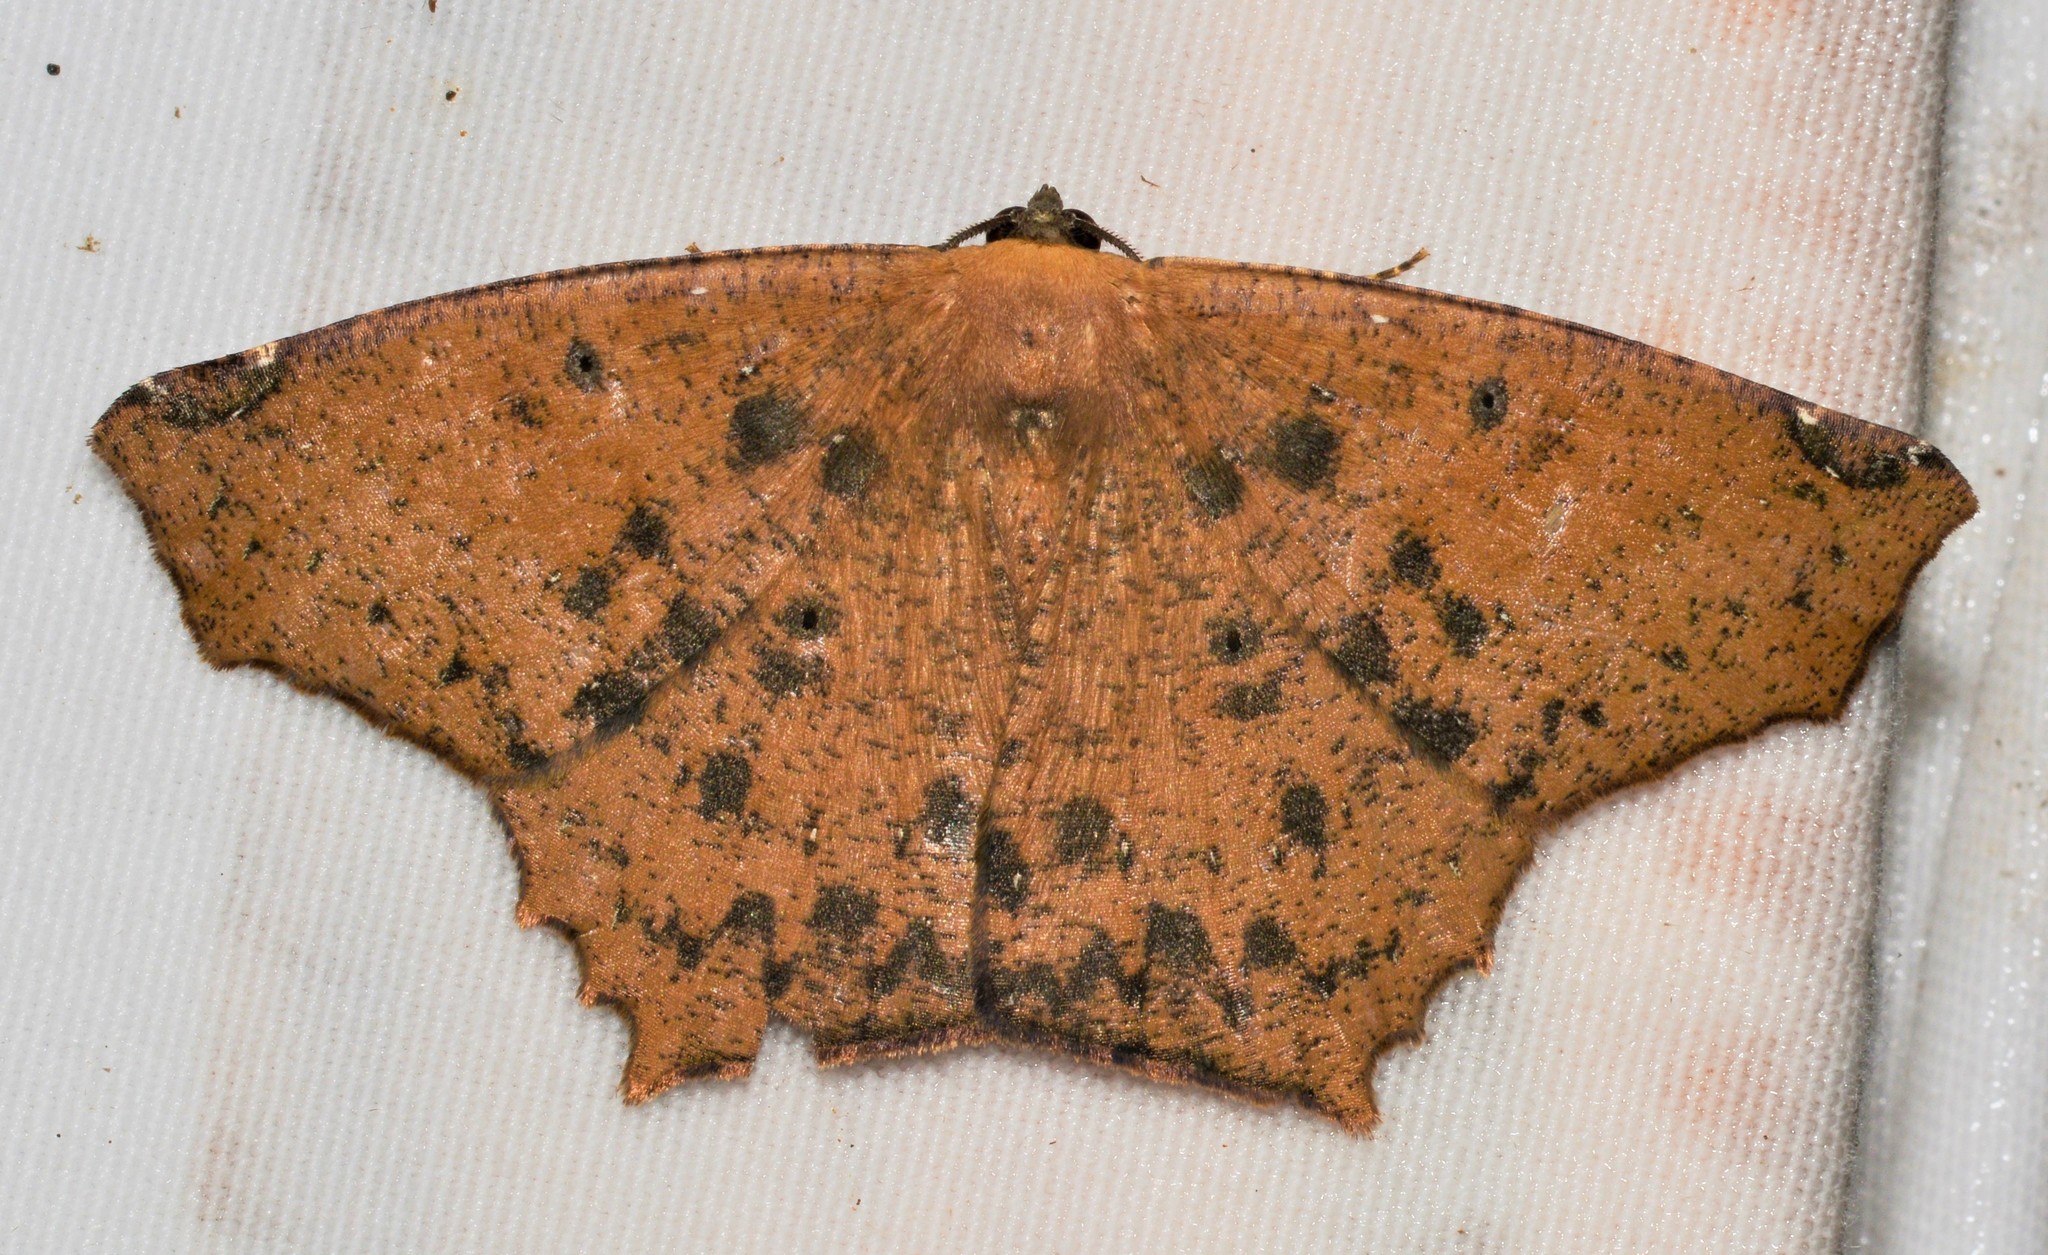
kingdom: Animalia
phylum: Arthropoda
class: Insecta
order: Lepidoptera
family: Geometridae
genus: Paragonia
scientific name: Paragonia cruraria
